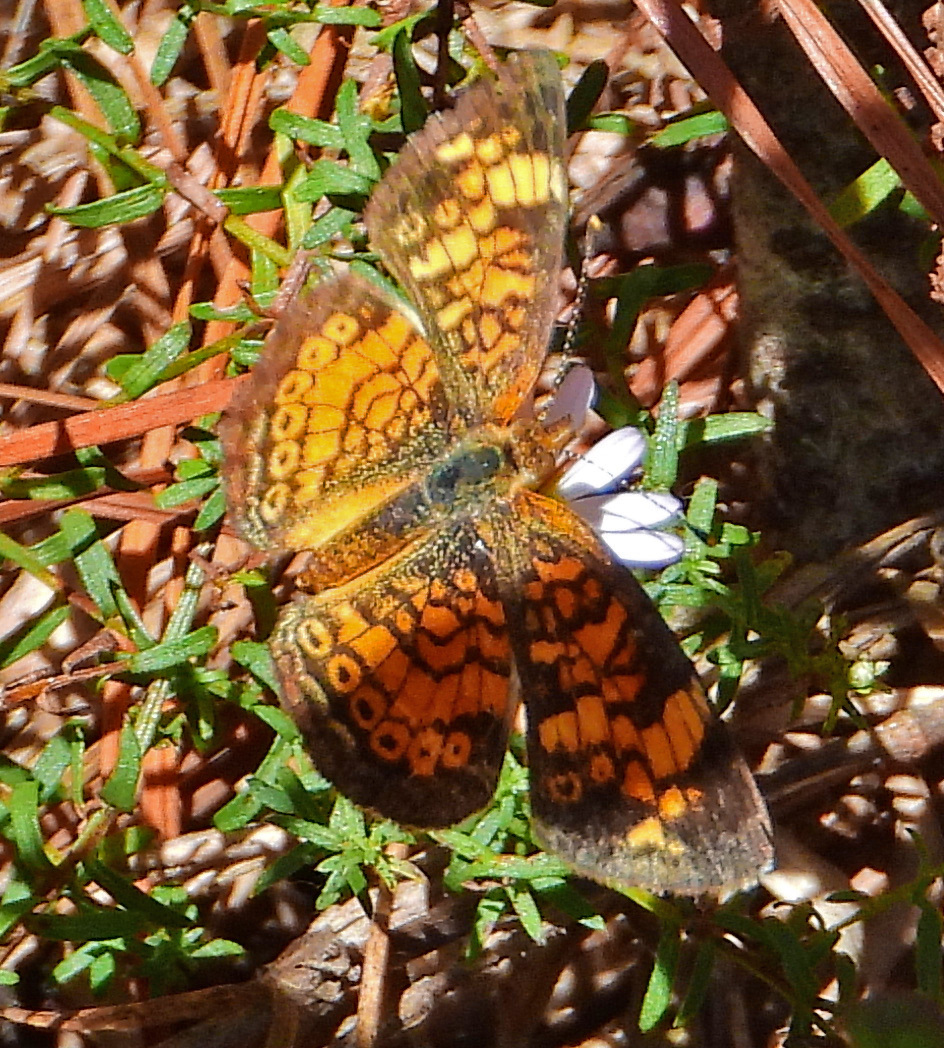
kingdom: Animalia
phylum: Arthropoda
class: Insecta
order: Lepidoptera
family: Nymphalidae
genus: Phyciodes
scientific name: Phyciodes tharos
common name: Pearl crescent
